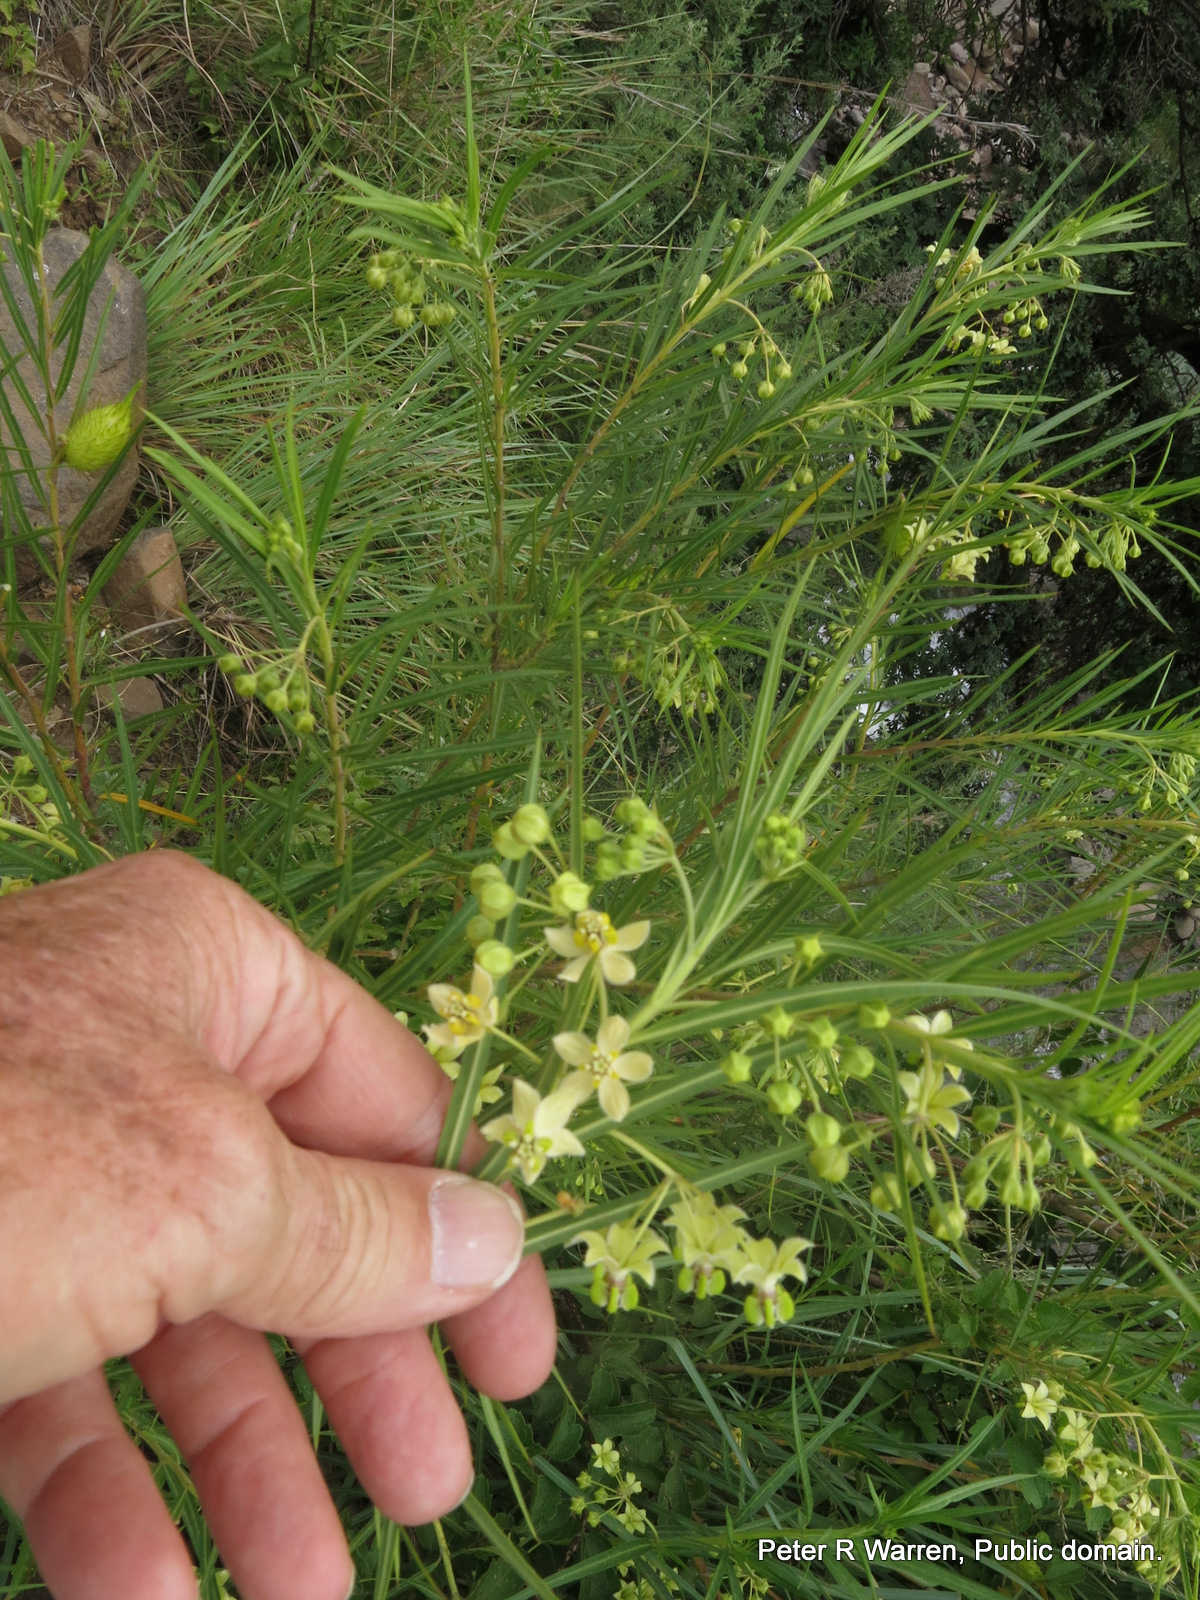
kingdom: Plantae
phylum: Tracheophyta
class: Magnoliopsida
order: Gentianales
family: Apocynaceae
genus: Gomphocarpus
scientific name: Gomphocarpus fruticosus
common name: Milkweed
